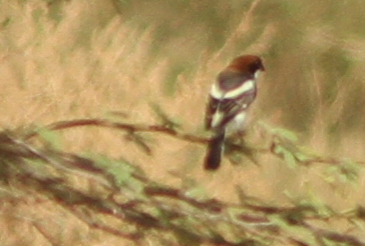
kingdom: Animalia
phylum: Chordata
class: Aves
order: Passeriformes
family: Laniidae
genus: Lanius
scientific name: Lanius senator
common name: Woodchat shrike
